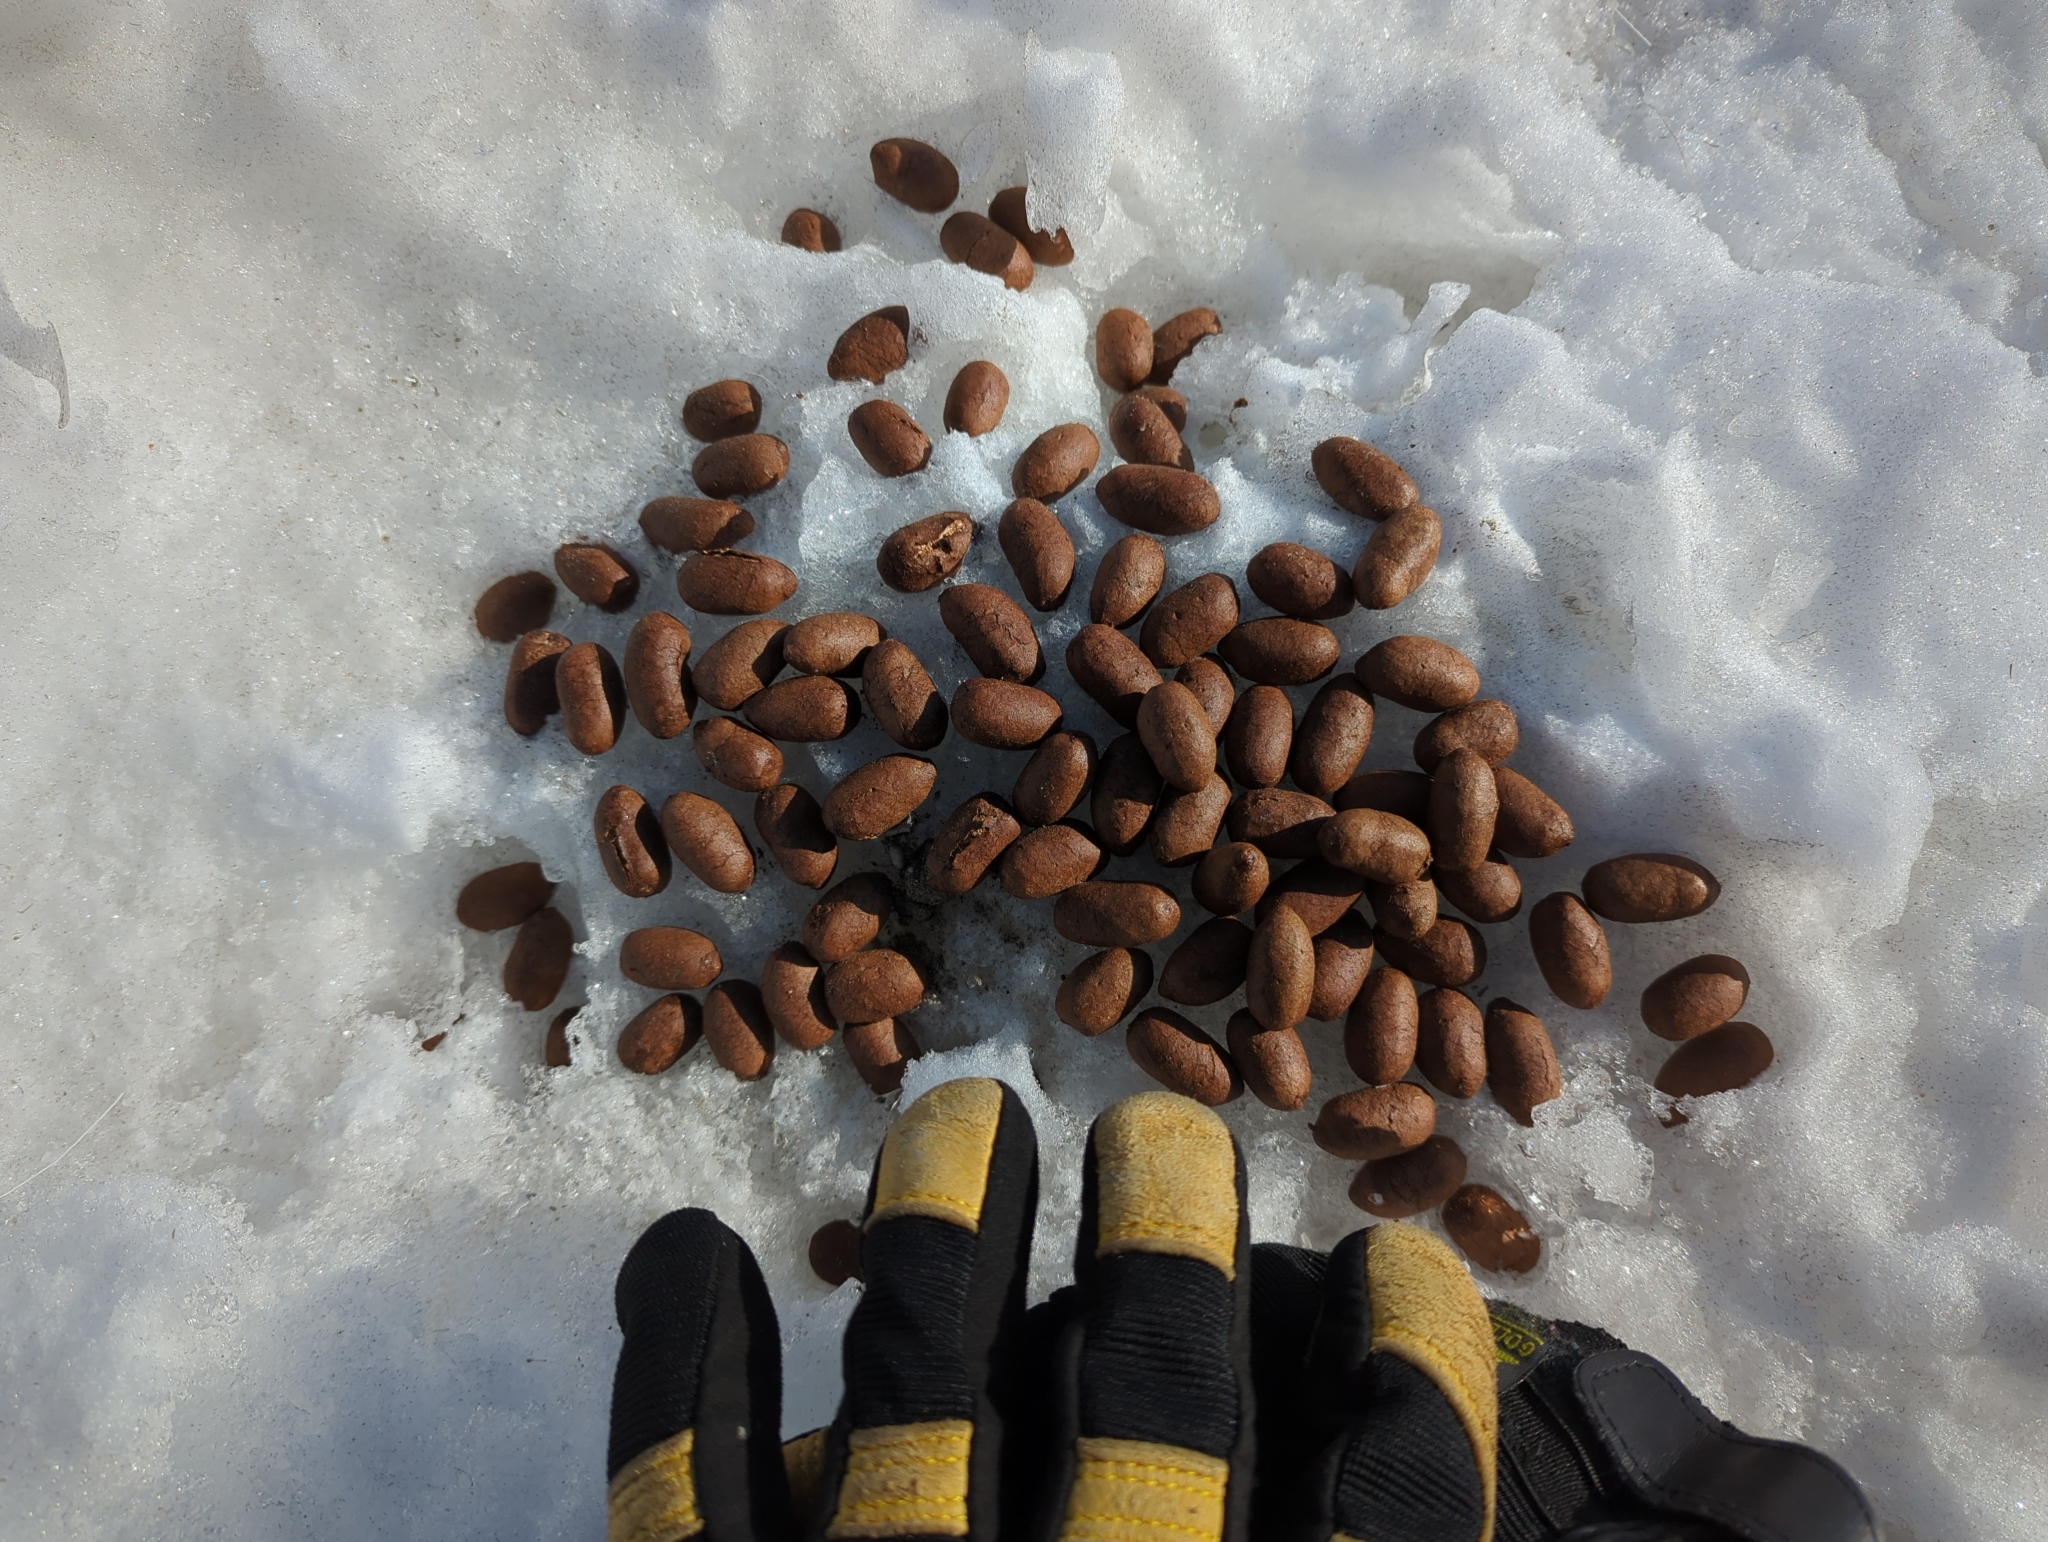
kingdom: Animalia
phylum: Chordata
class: Mammalia
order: Artiodactyla
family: Cervidae
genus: Alces
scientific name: Alces alces
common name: Moose
